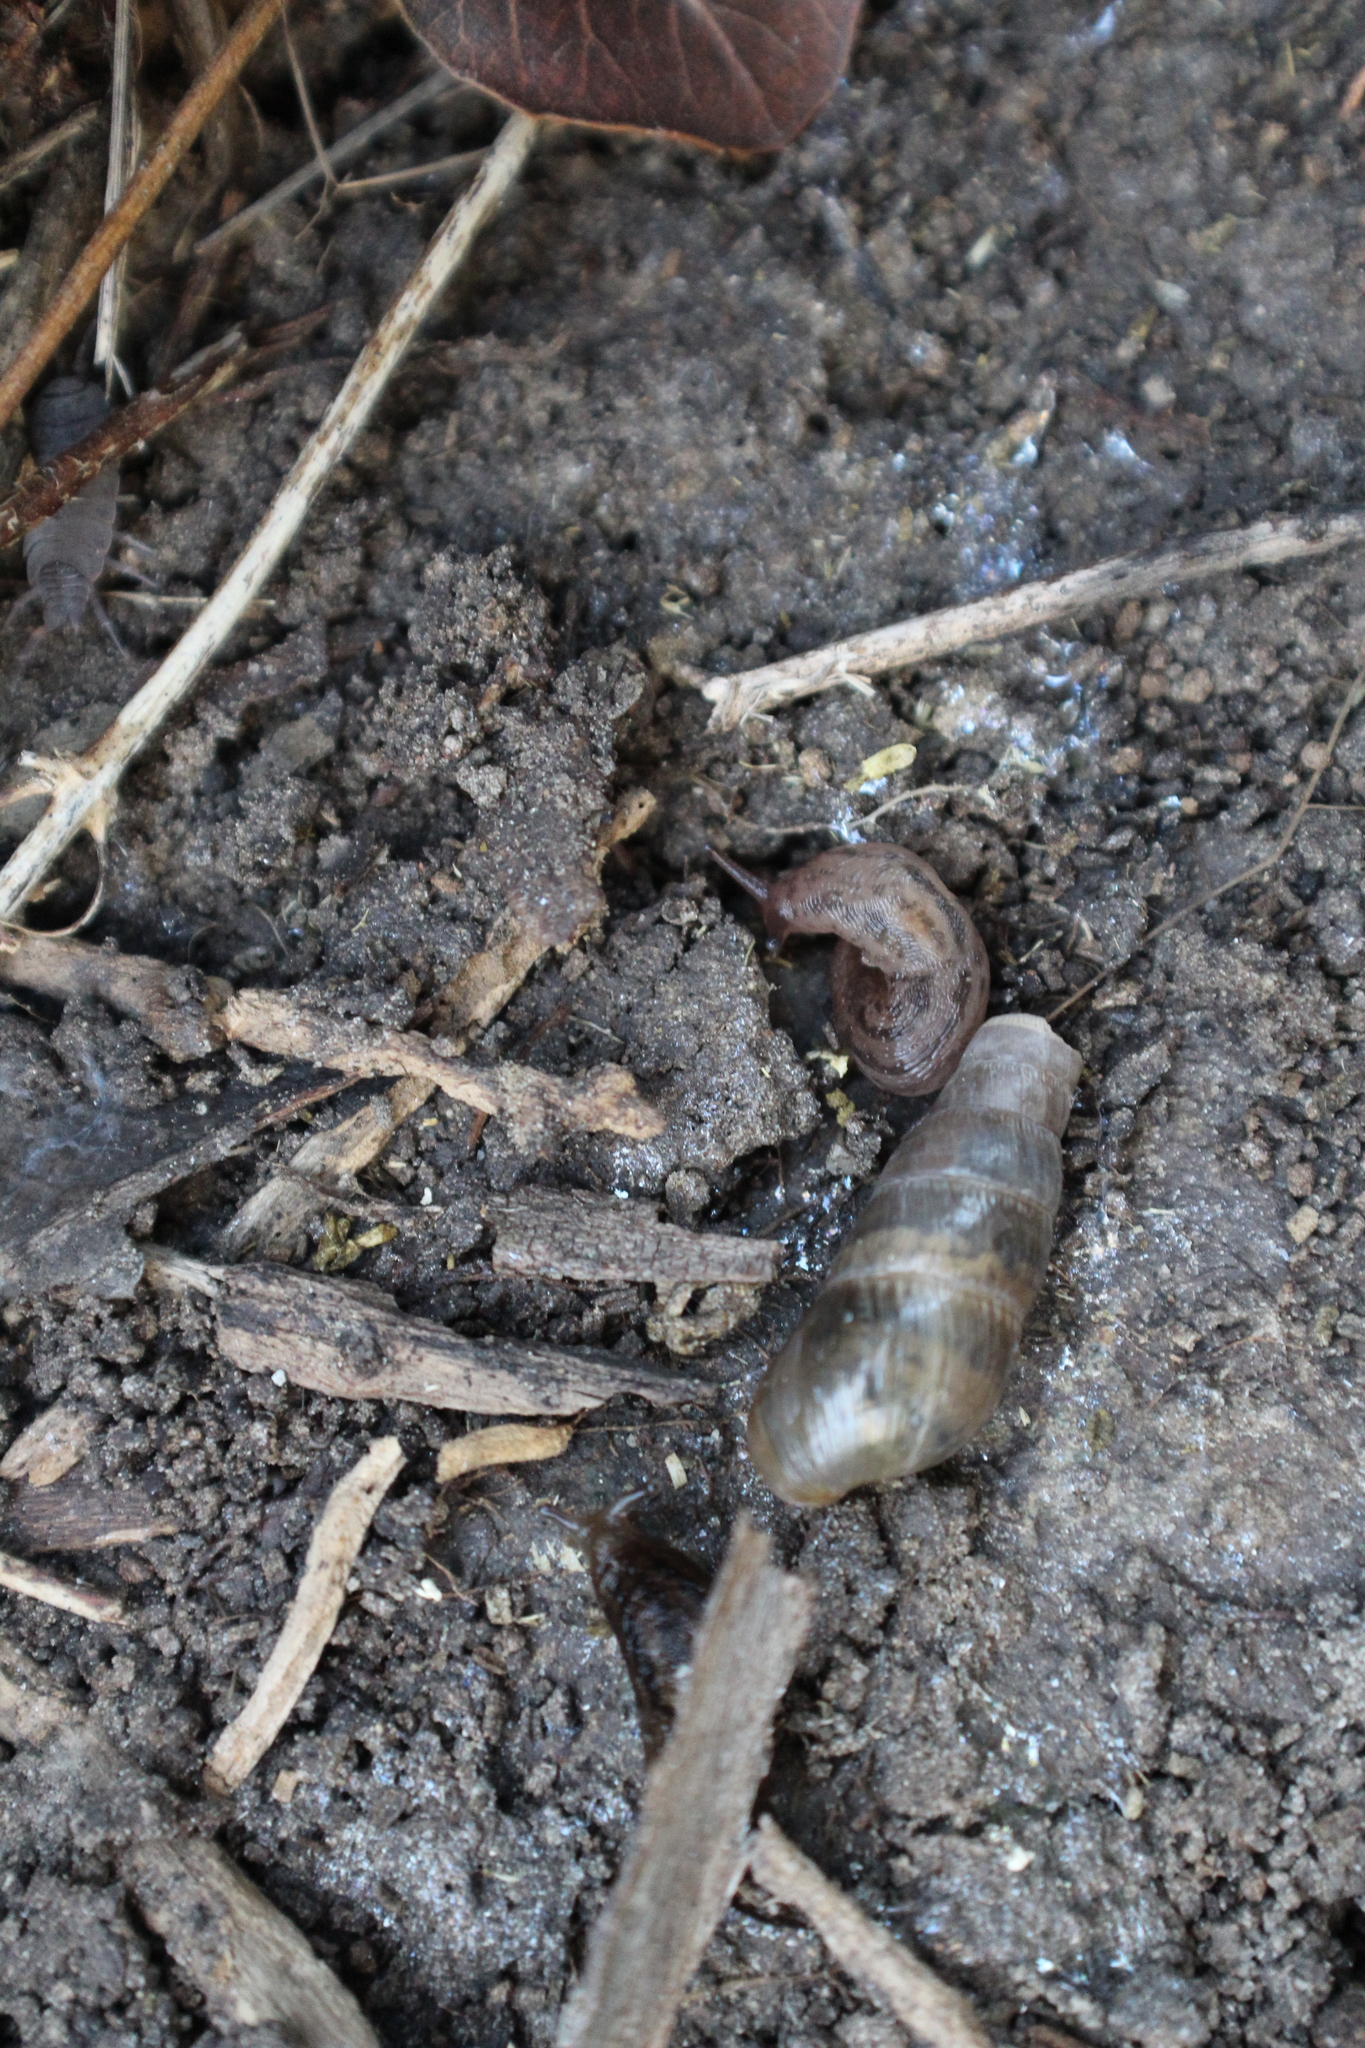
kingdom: Animalia
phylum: Mollusca
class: Gastropoda
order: Stylommatophora
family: Achatinidae
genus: Rumina
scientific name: Rumina decollata
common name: Decollate snail
